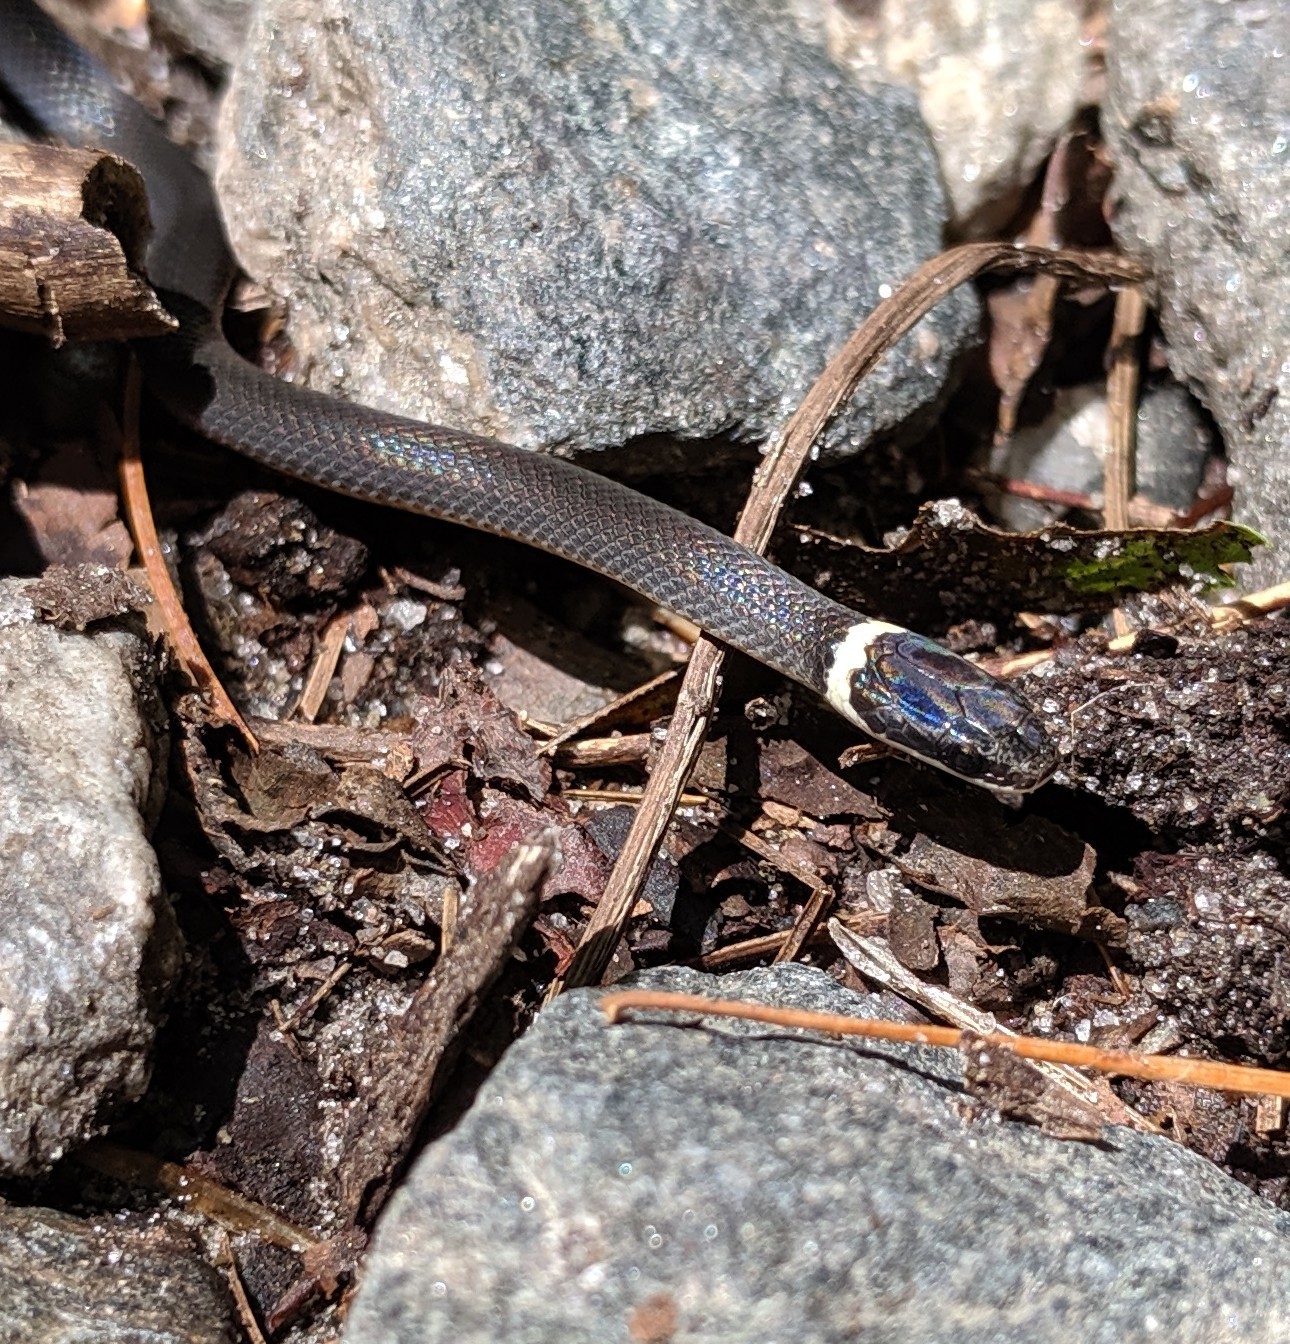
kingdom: Animalia
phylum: Chordata
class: Squamata
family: Colubridae
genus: Diadophis
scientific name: Diadophis punctatus
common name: Ringneck snake
